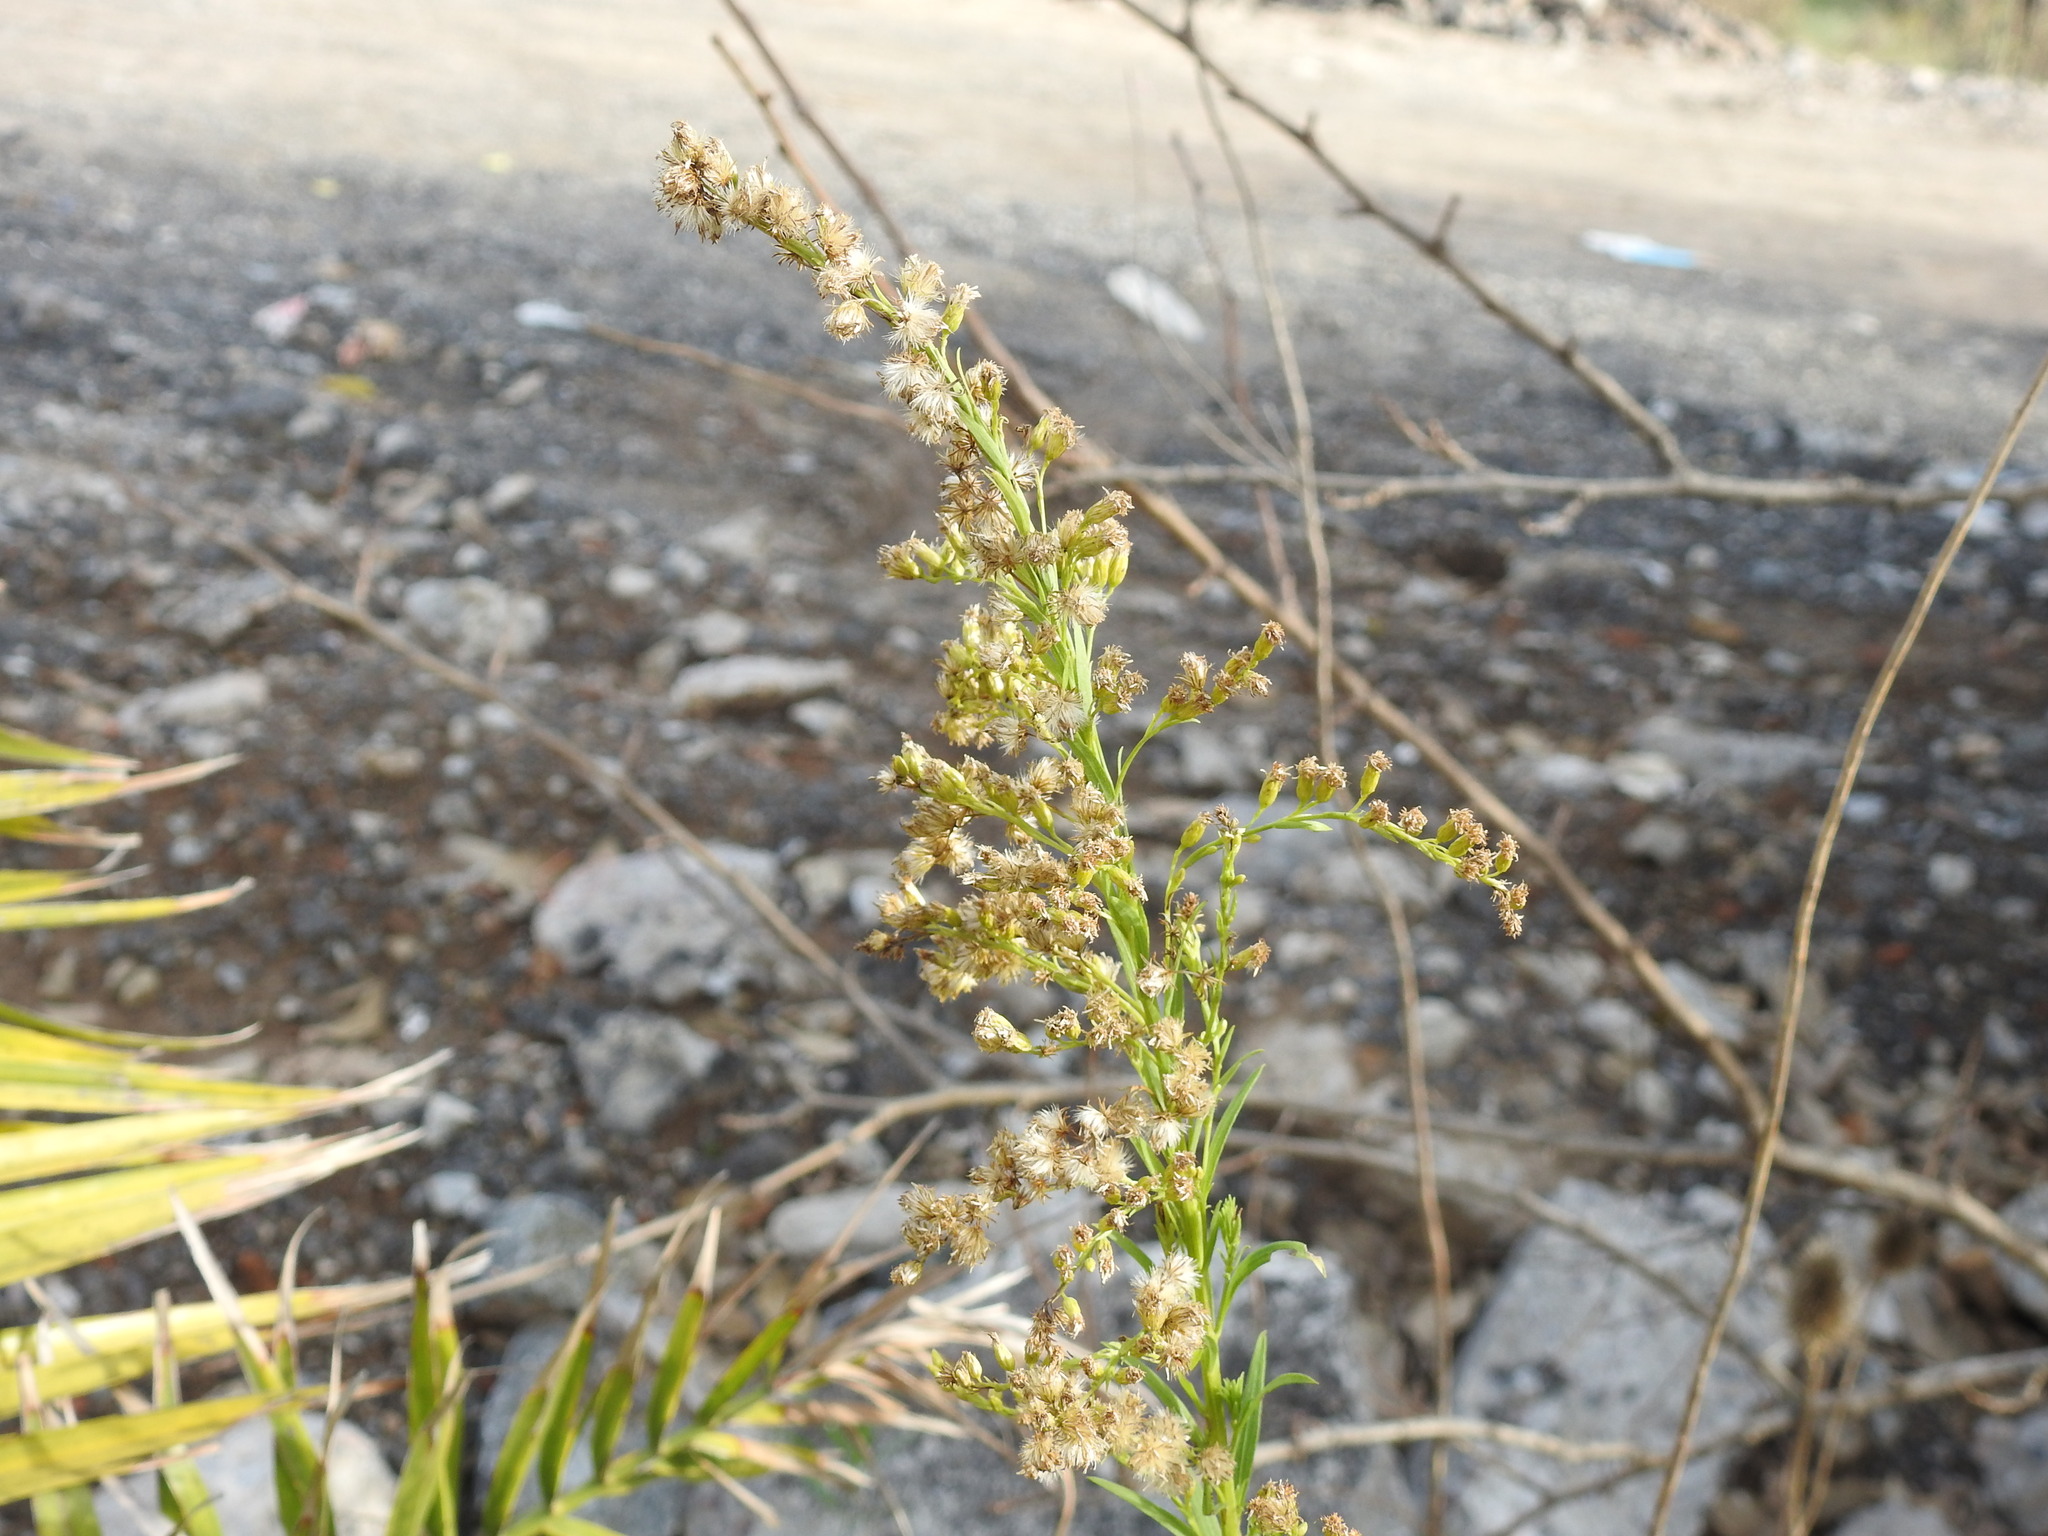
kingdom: Plantae
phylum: Tracheophyta
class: Magnoliopsida
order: Asterales
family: Asteraceae
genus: Solidago
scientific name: Solidago chilensis
